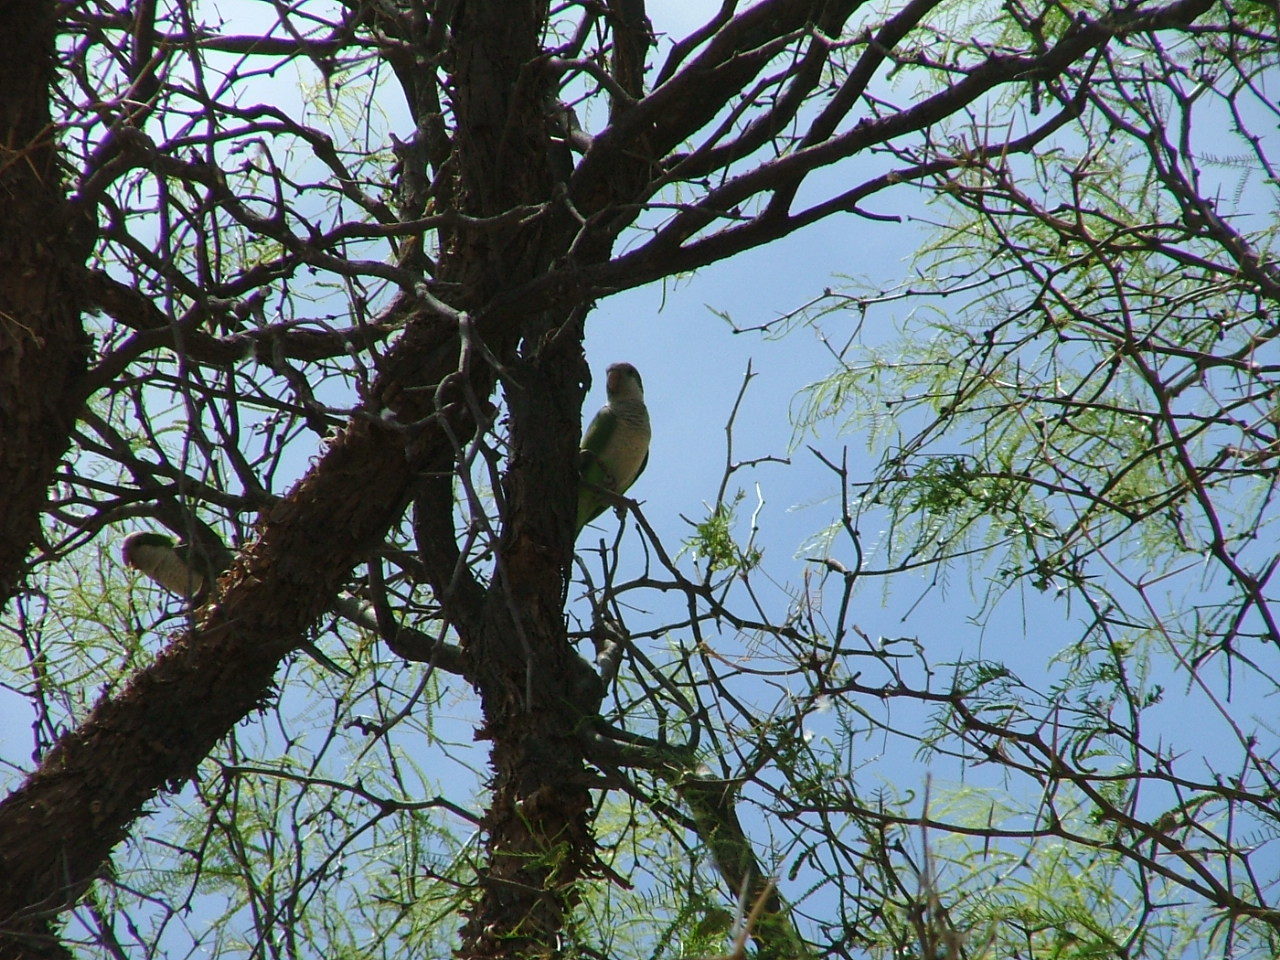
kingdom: Animalia
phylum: Chordata
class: Aves
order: Psittaciformes
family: Psittacidae
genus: Myiopsitta
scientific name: Myiopsitta monachus
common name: Monk parakeet
